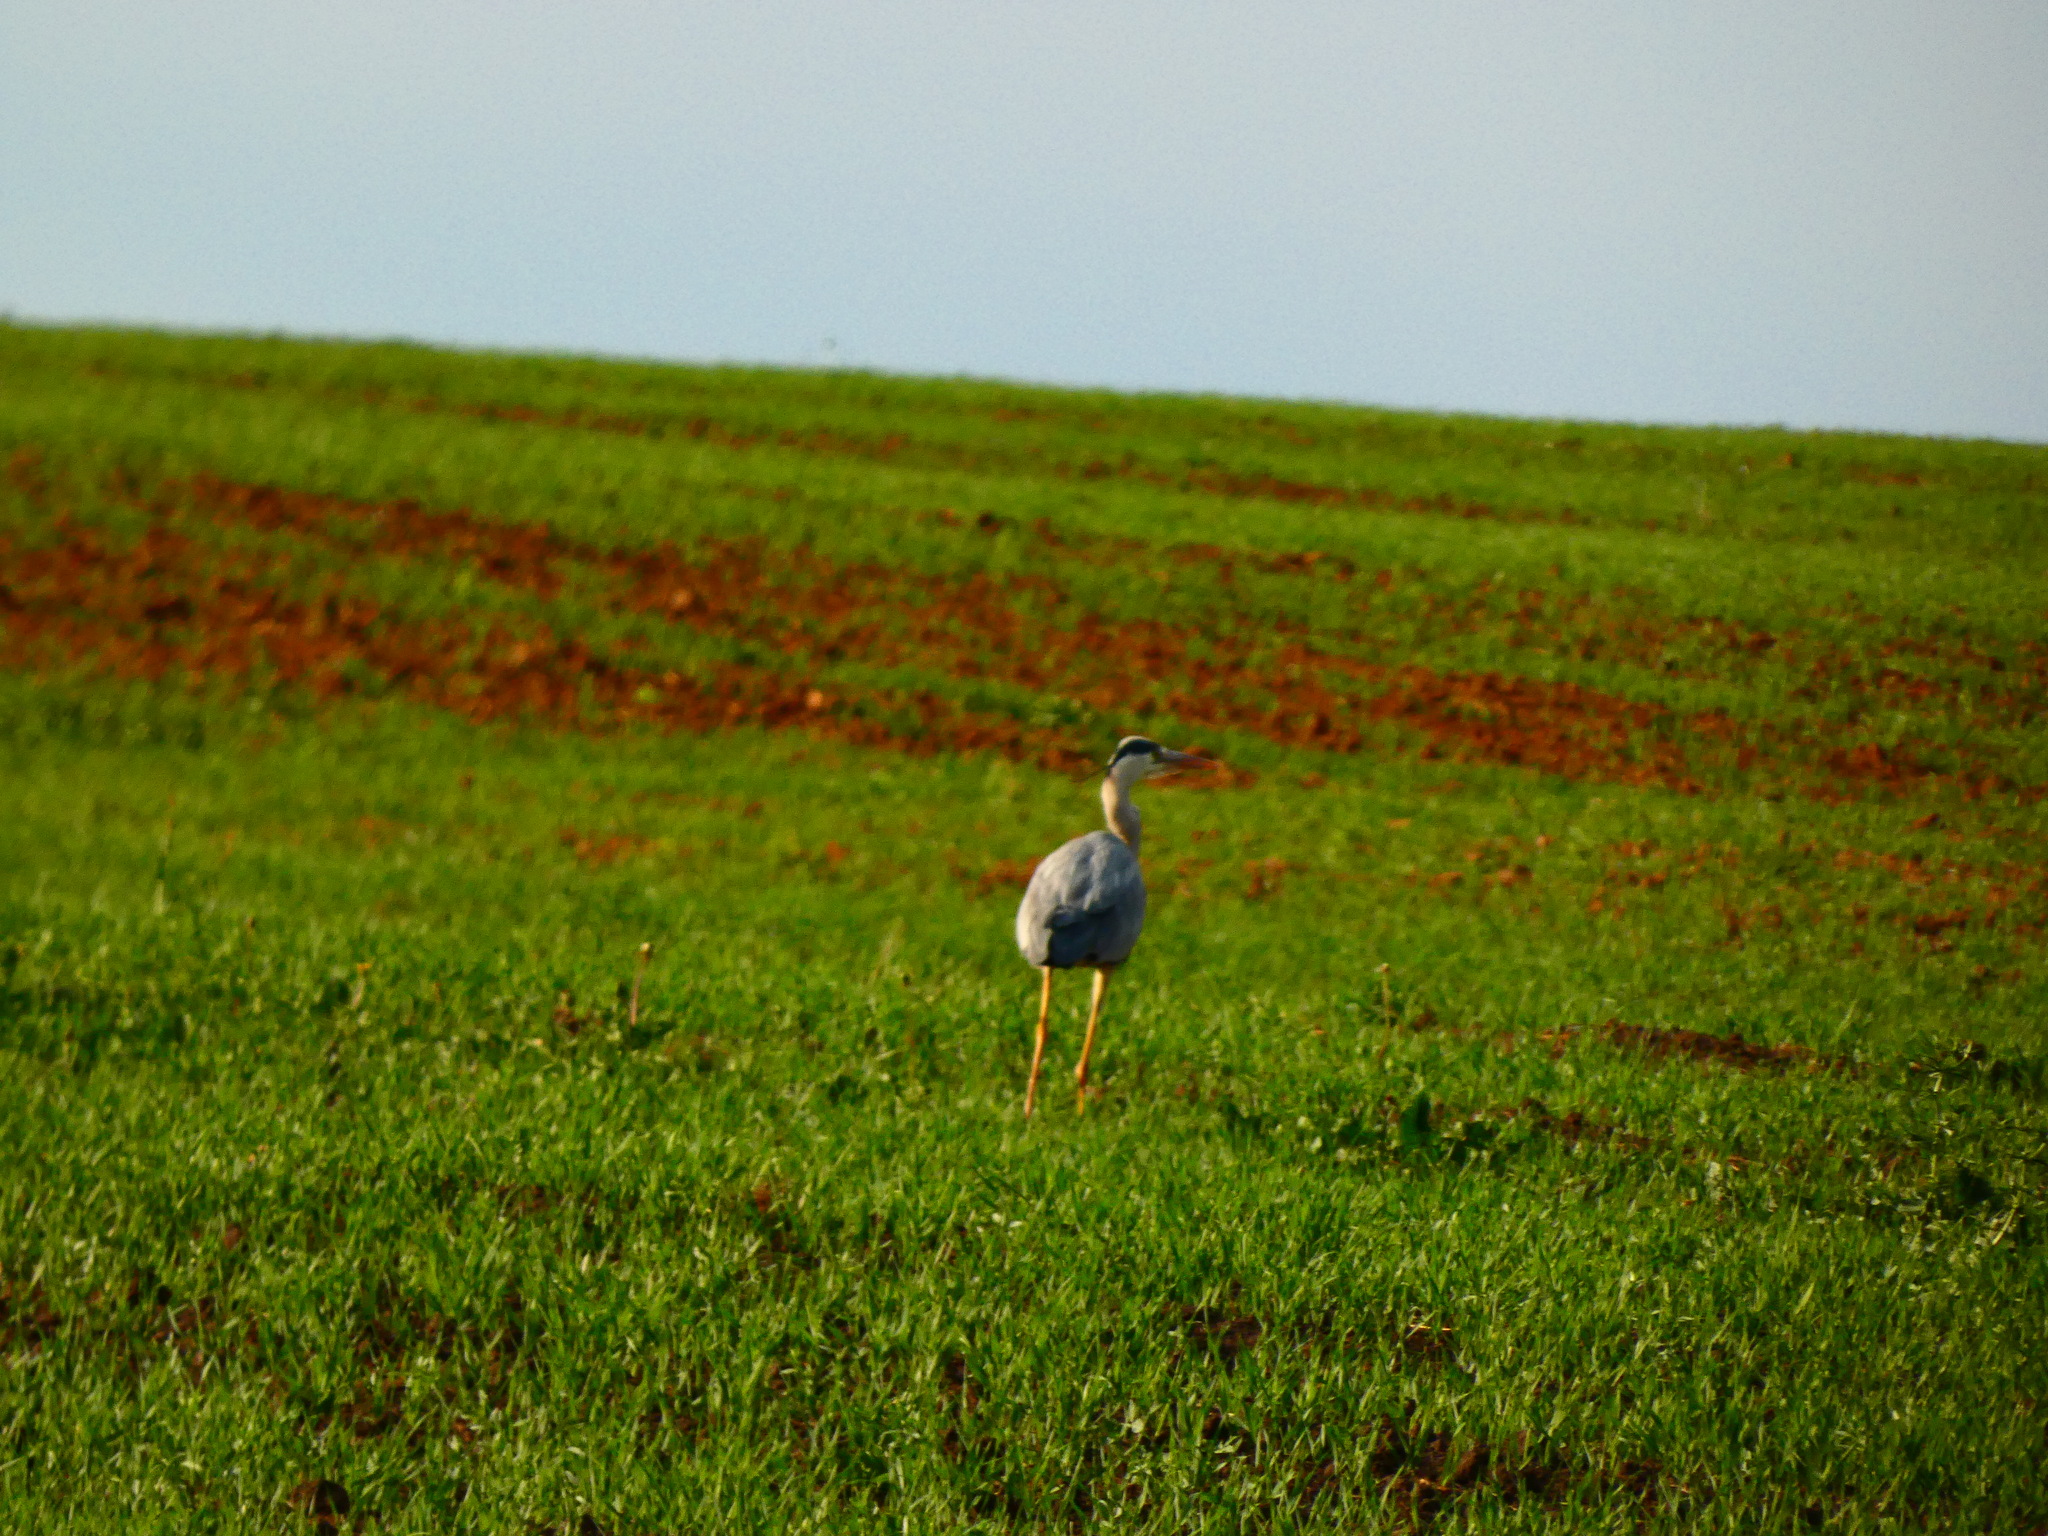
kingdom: Animalia
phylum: Chordata
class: Aves
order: Pelecaniformes
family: Ardeidae
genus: Ardea
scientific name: Ardea cinerea
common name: Grey heron
